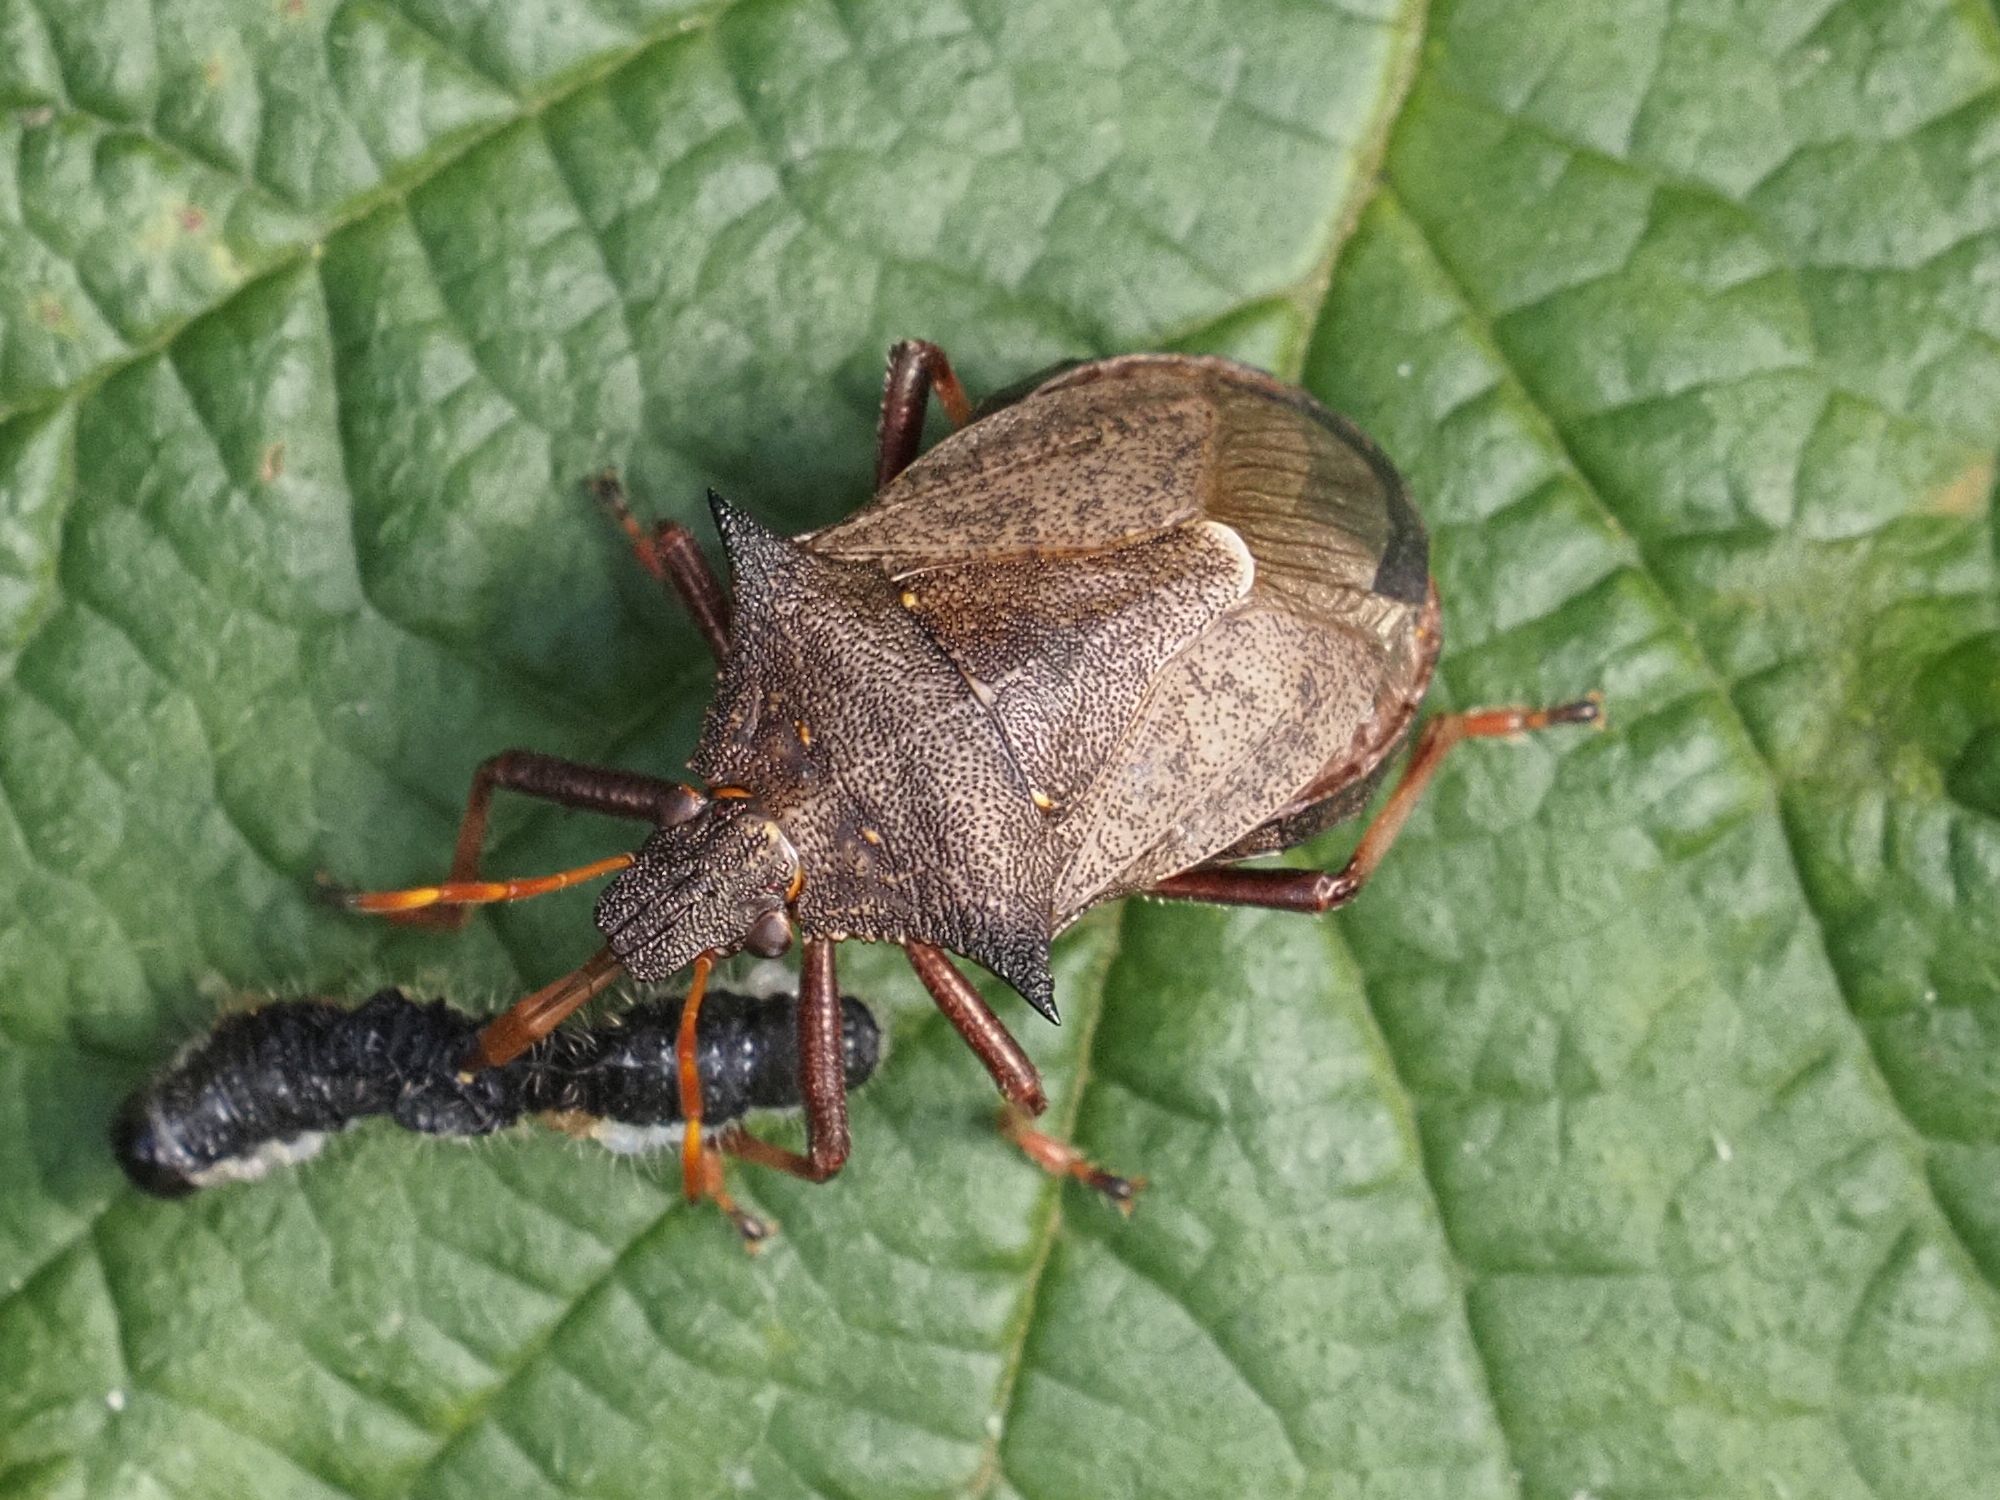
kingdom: Animalia
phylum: Arthropoda
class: Insecta
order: Hemiptera
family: Pentatomidae
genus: Picromerus
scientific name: Picromerus bidens
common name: Spiked shieldbug
